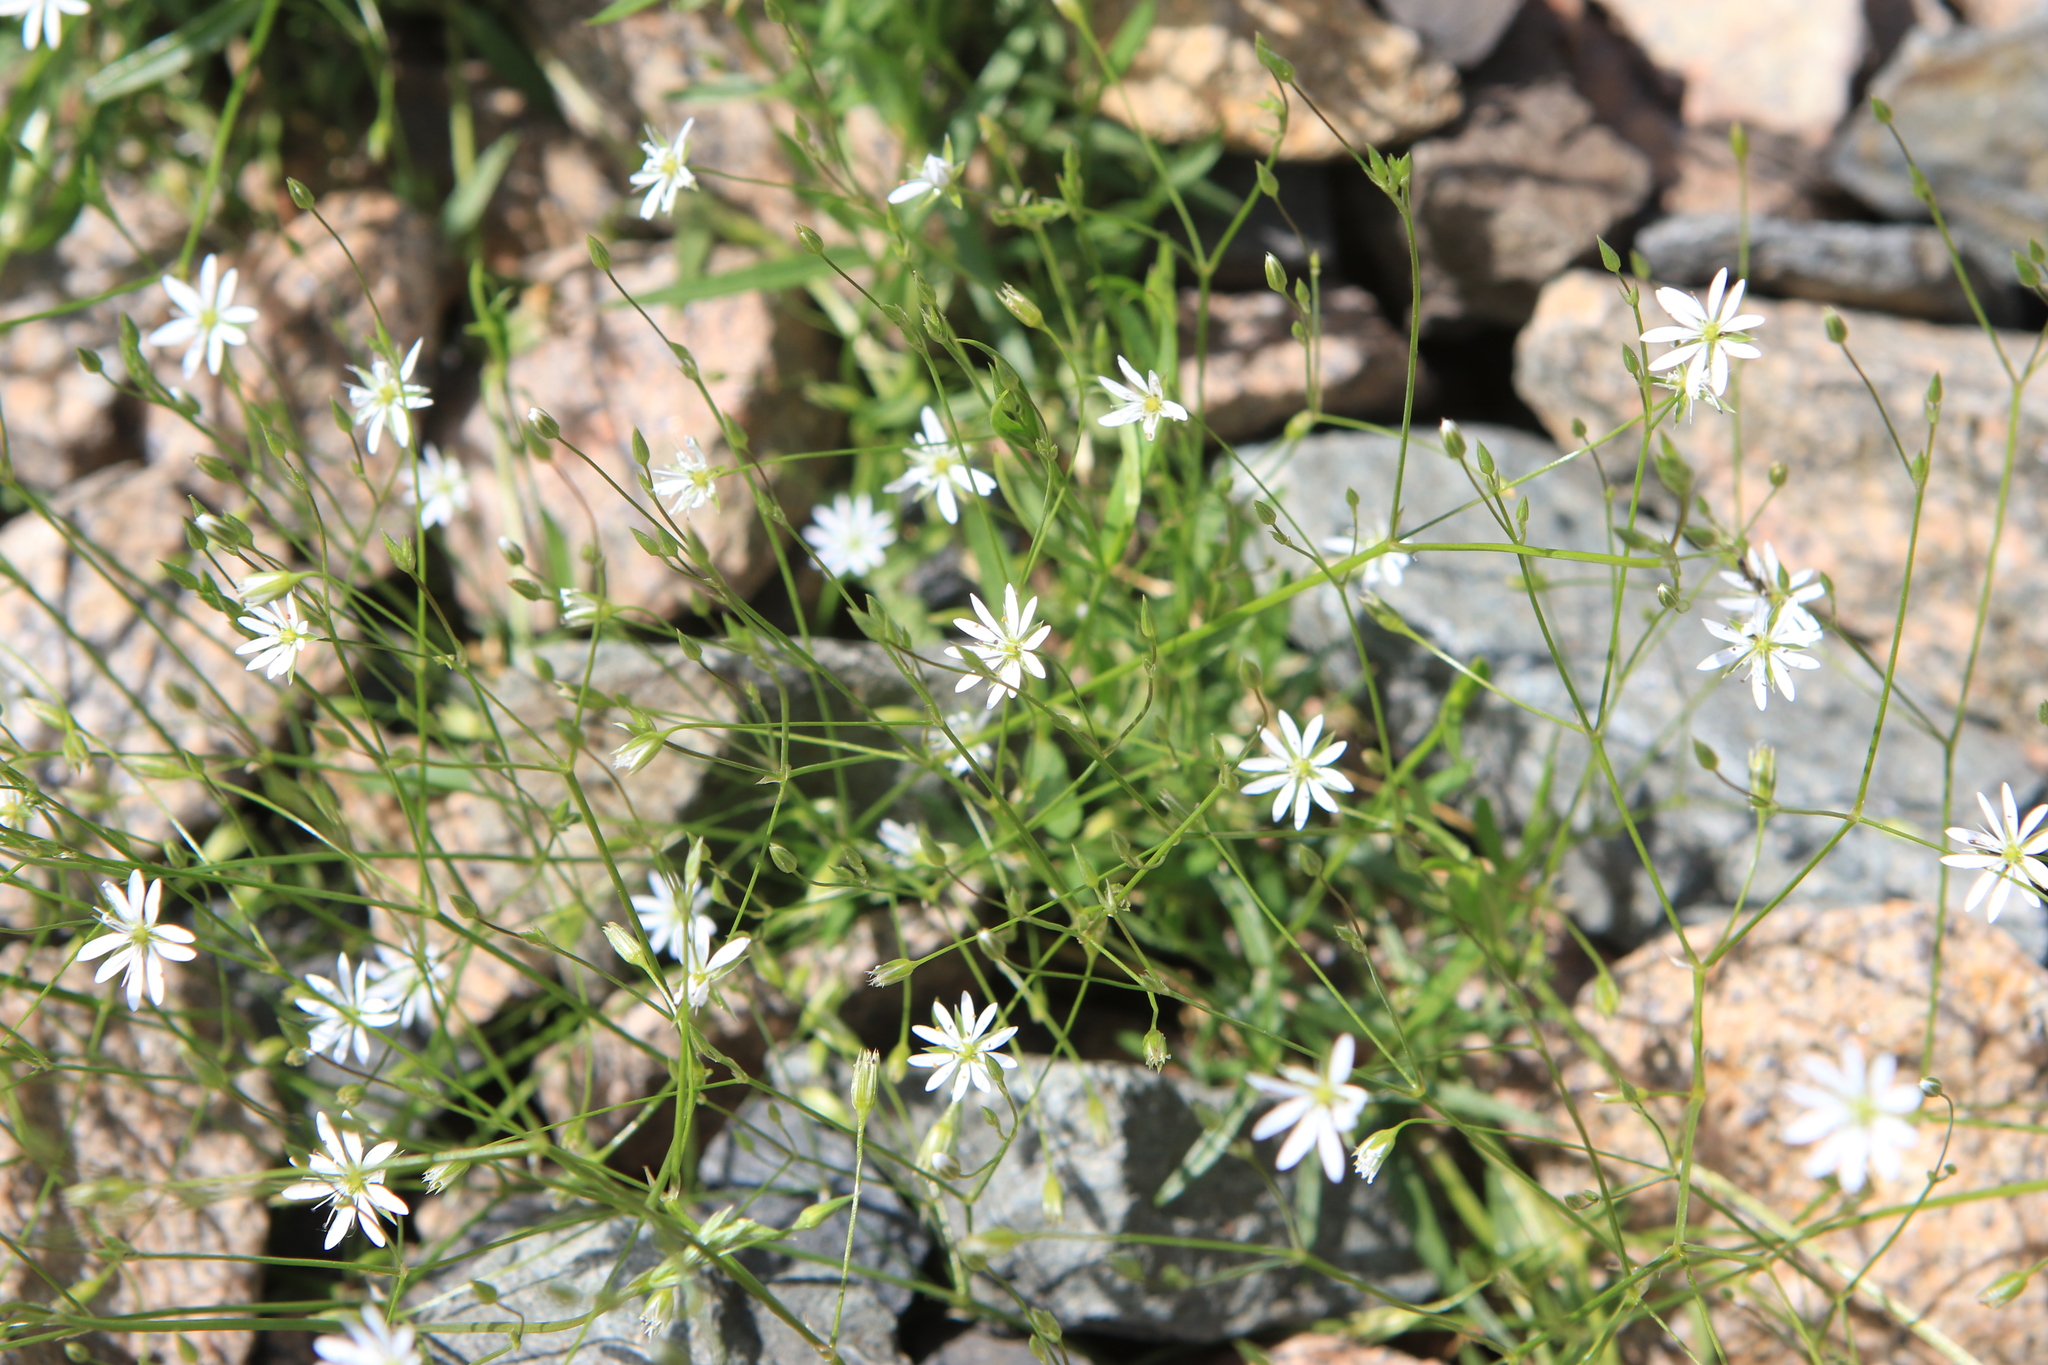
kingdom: Plantae
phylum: Tracheophyta
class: Magnoliopsida
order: Caryophyllales
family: Caryophyllaceae
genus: Stellaria
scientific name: Stellaria graminea
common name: Grass-like starwort
